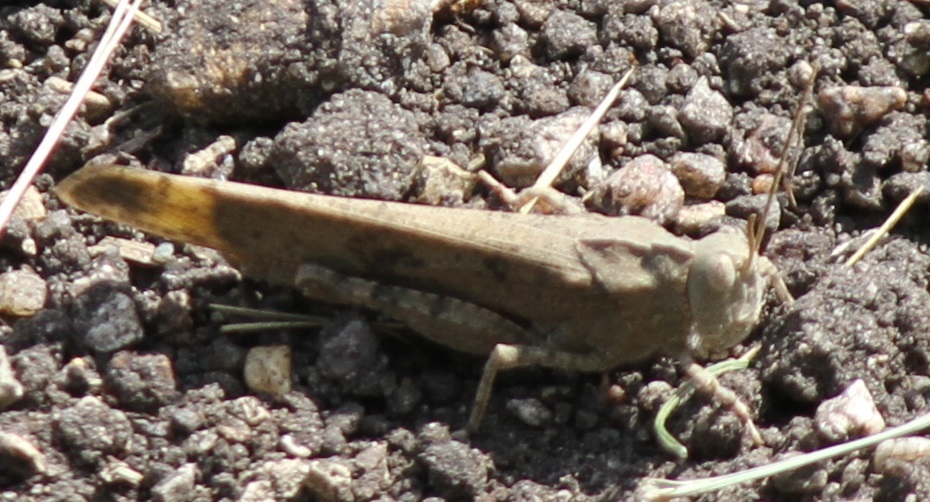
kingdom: Animalia
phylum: Arthropoda
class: Insecta
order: Orthoptera
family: Acrididae
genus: Dissosteira
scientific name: Dissosteira carolina
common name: Carolina grasshopper
